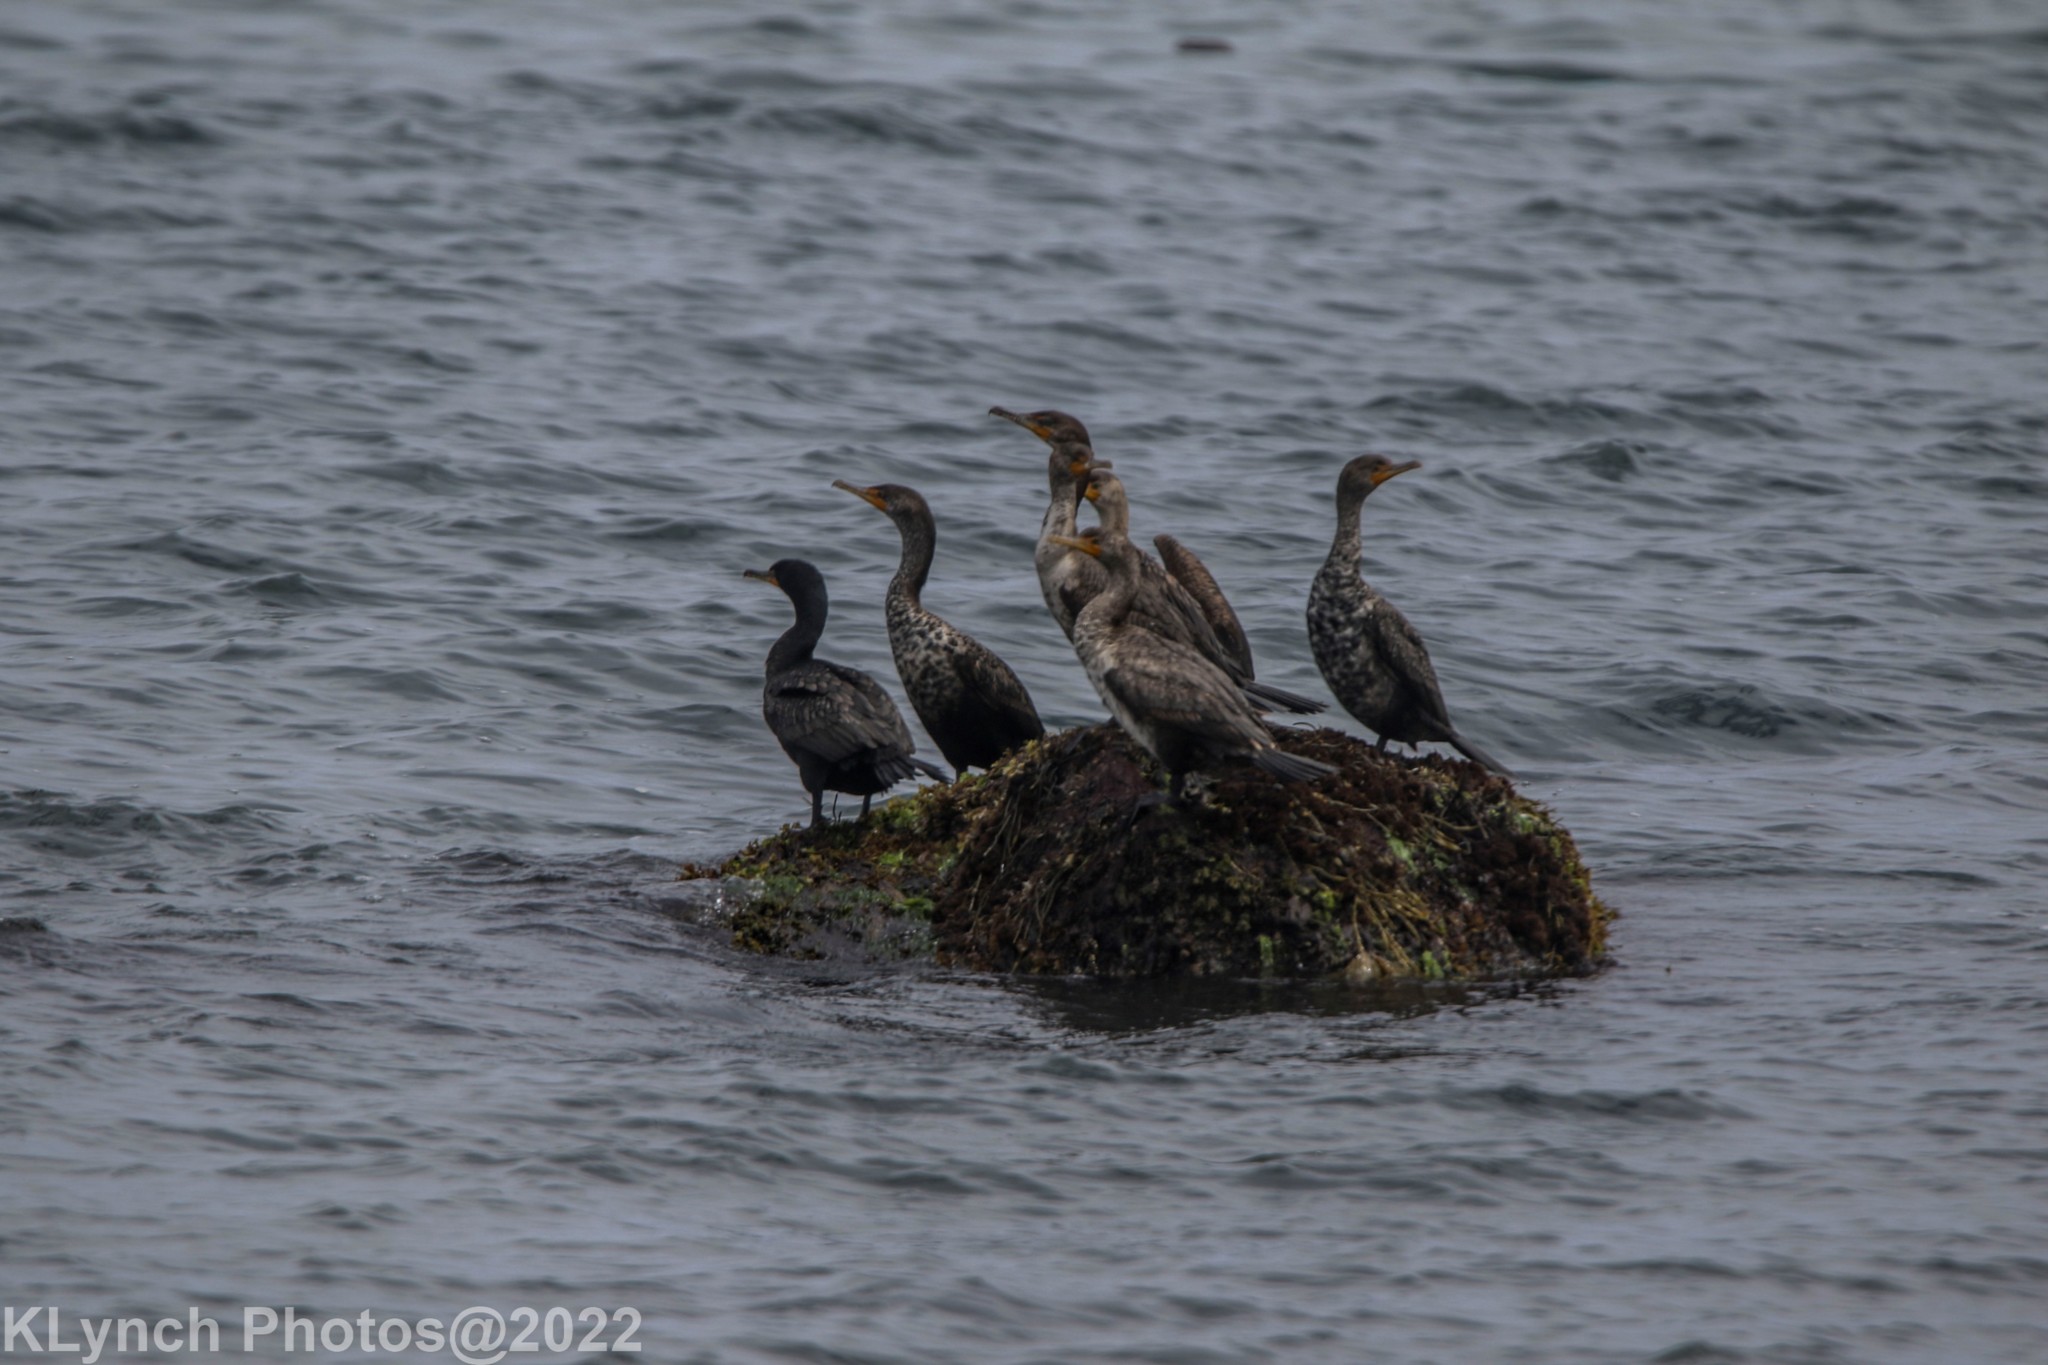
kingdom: Animalia
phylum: Chordata
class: Aves
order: Suliformes
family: Phalacrocoracidae
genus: Phalacrocorax
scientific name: Phalacrocorax auritus
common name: Double-crested cormorant
